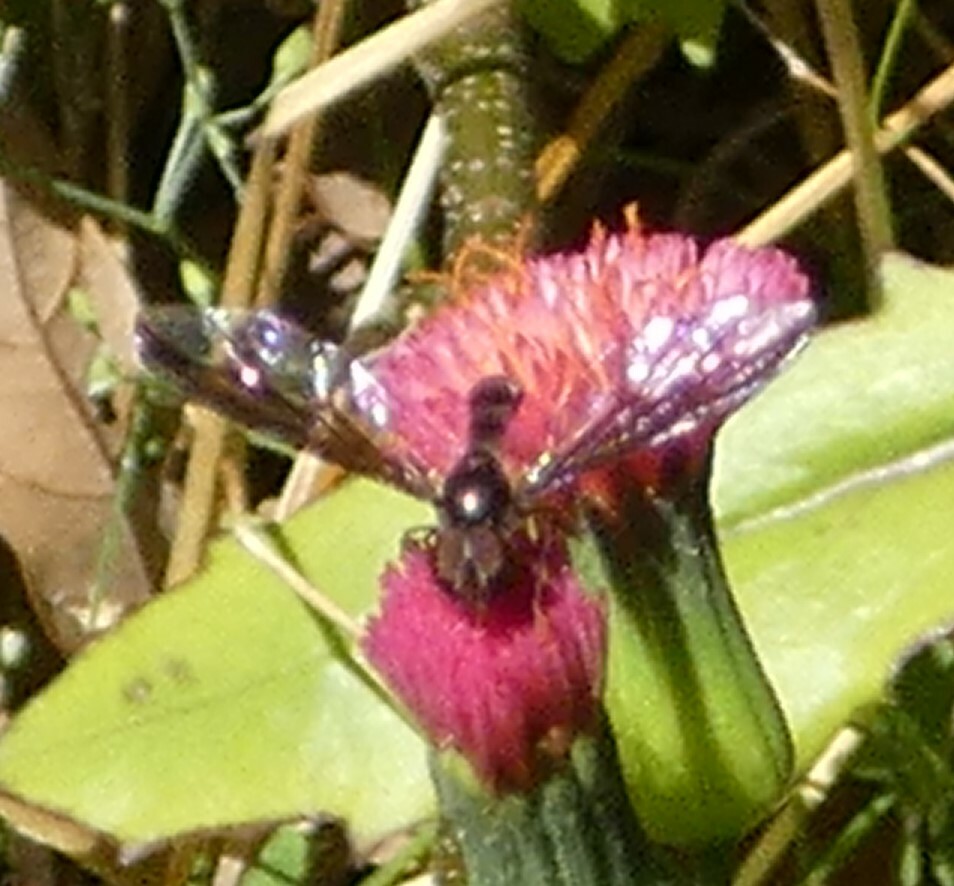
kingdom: Animalia
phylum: Arthropoda
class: Insecta
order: Diptera
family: Syrphidae
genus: Ocyptamus
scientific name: Ocyptamus fuscipennis
